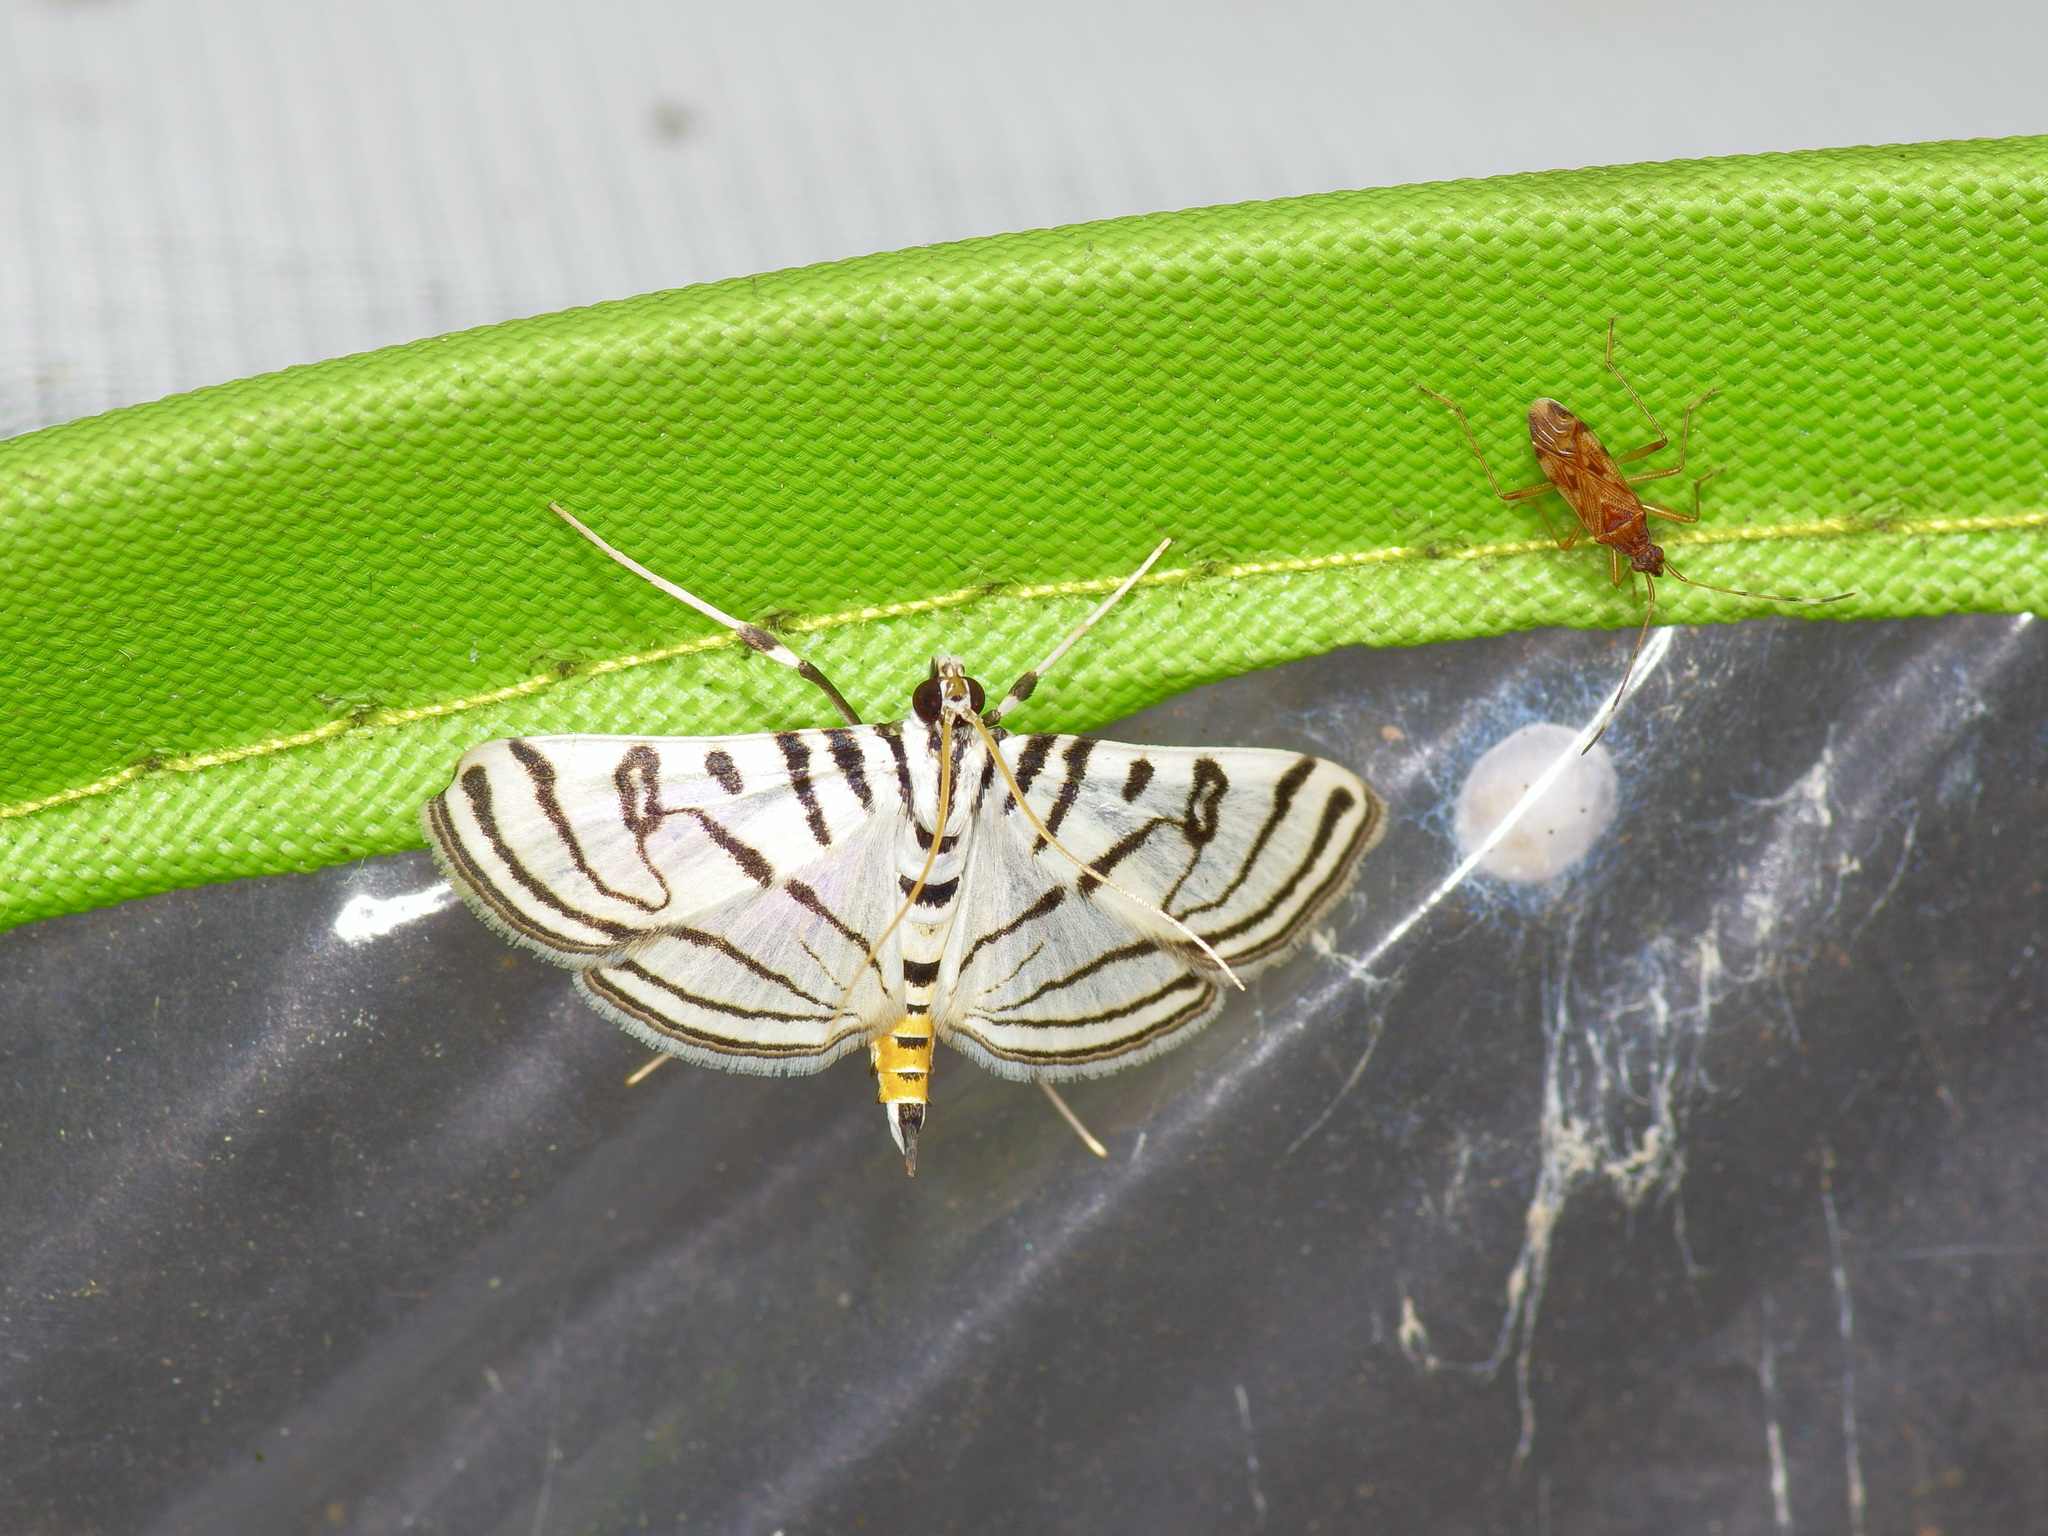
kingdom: Animalia
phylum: Arthropoda
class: Insecta
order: Lepidoptera
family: Crambidae
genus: Conchylodes
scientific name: Conchylodes ovulalis
